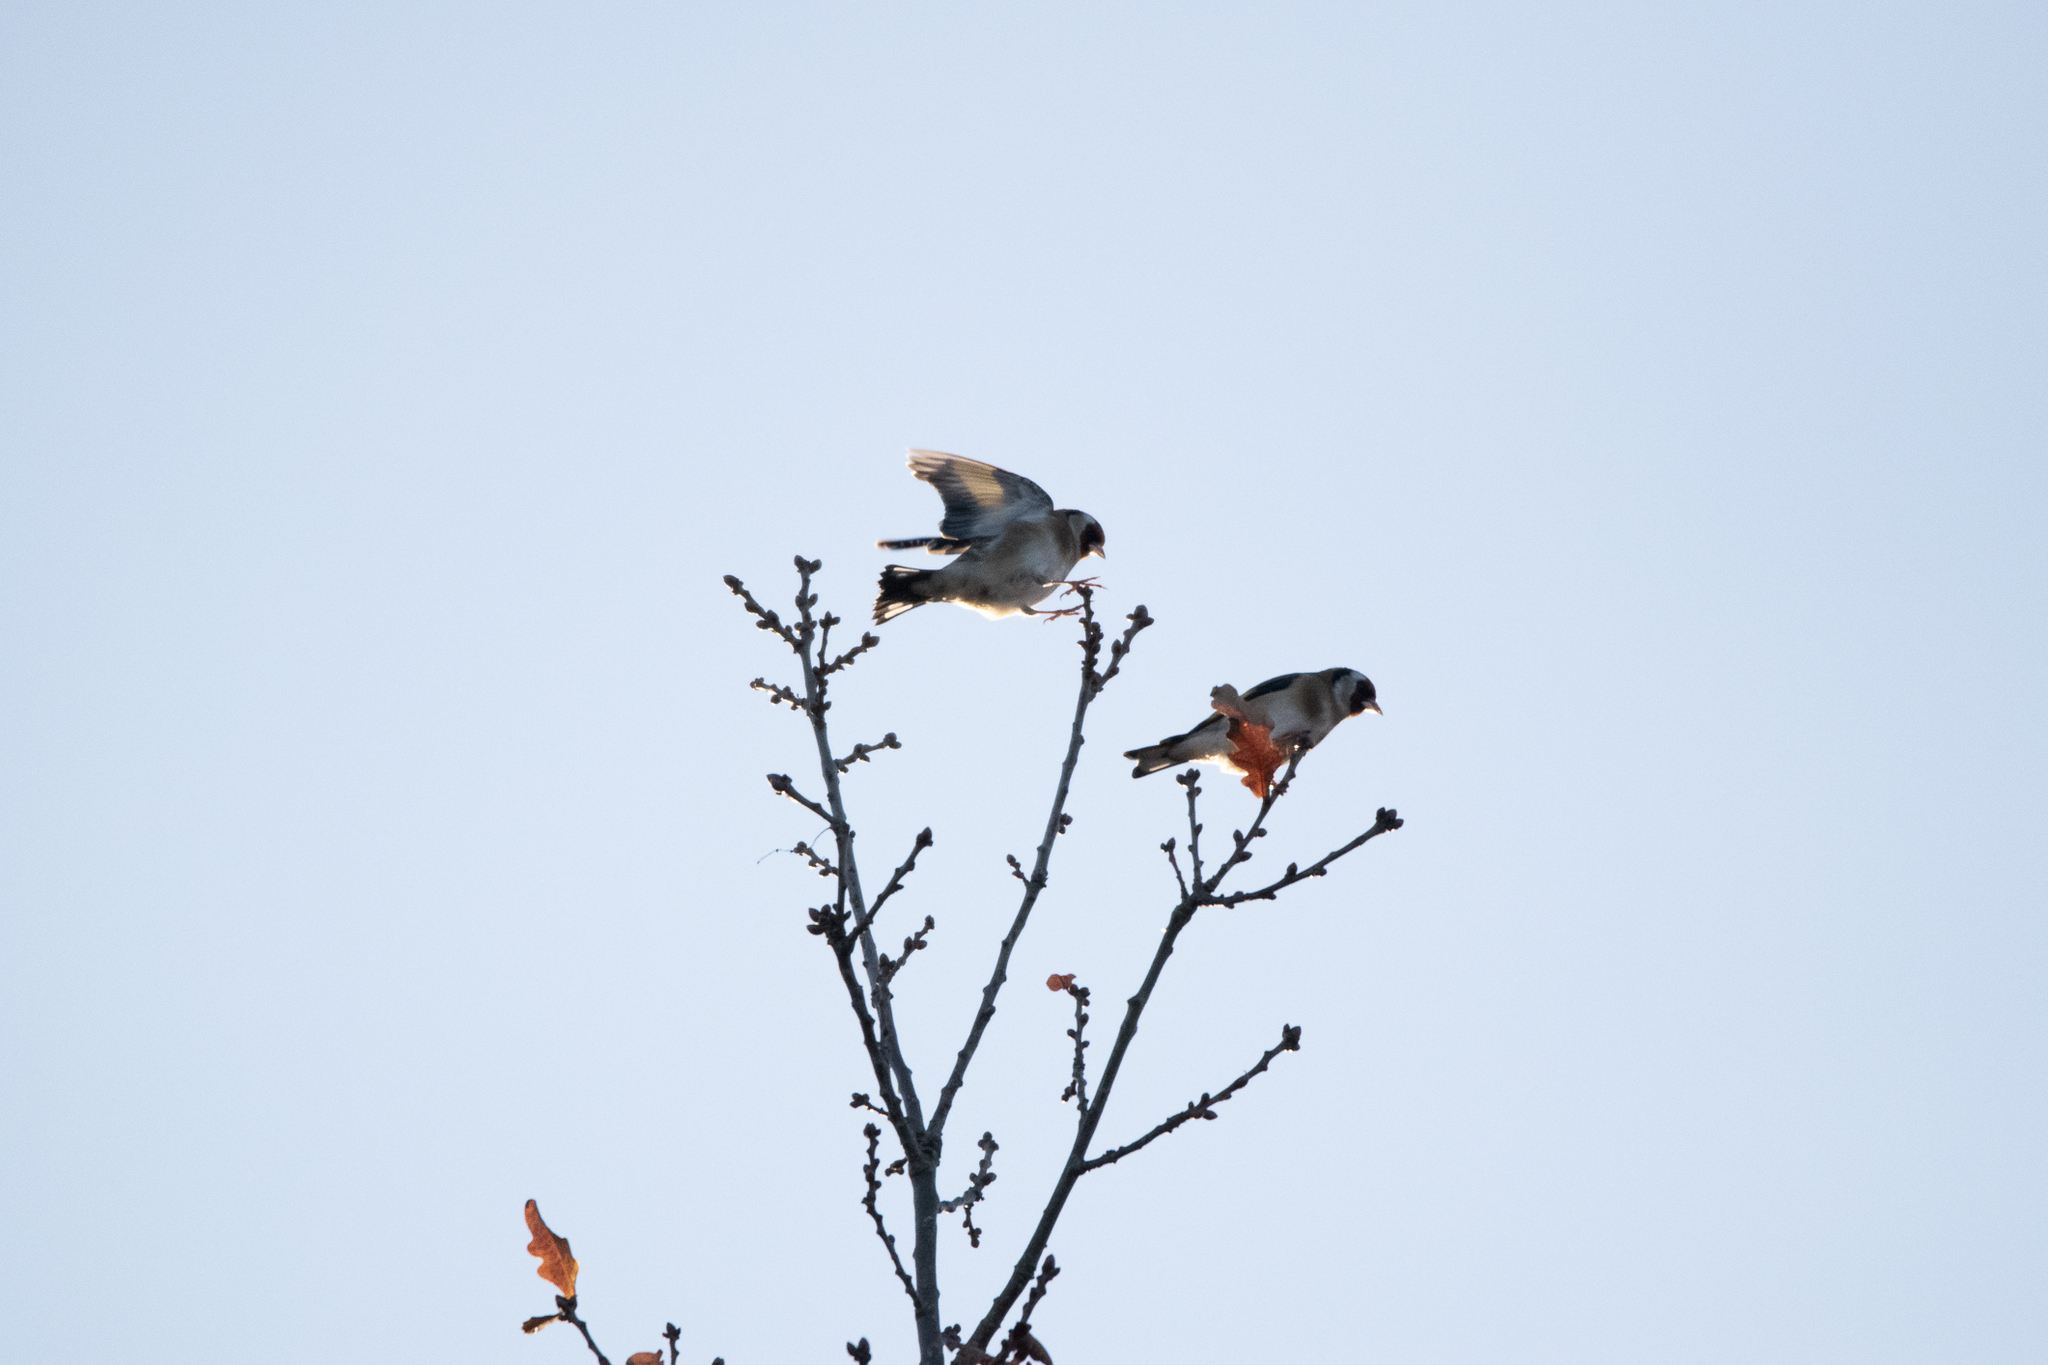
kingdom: Animalia
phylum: Chordata
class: Aves
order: Passeriformes
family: Fringillidae
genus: Carduelis
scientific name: Carduelis carduelis
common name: European goldfinch
